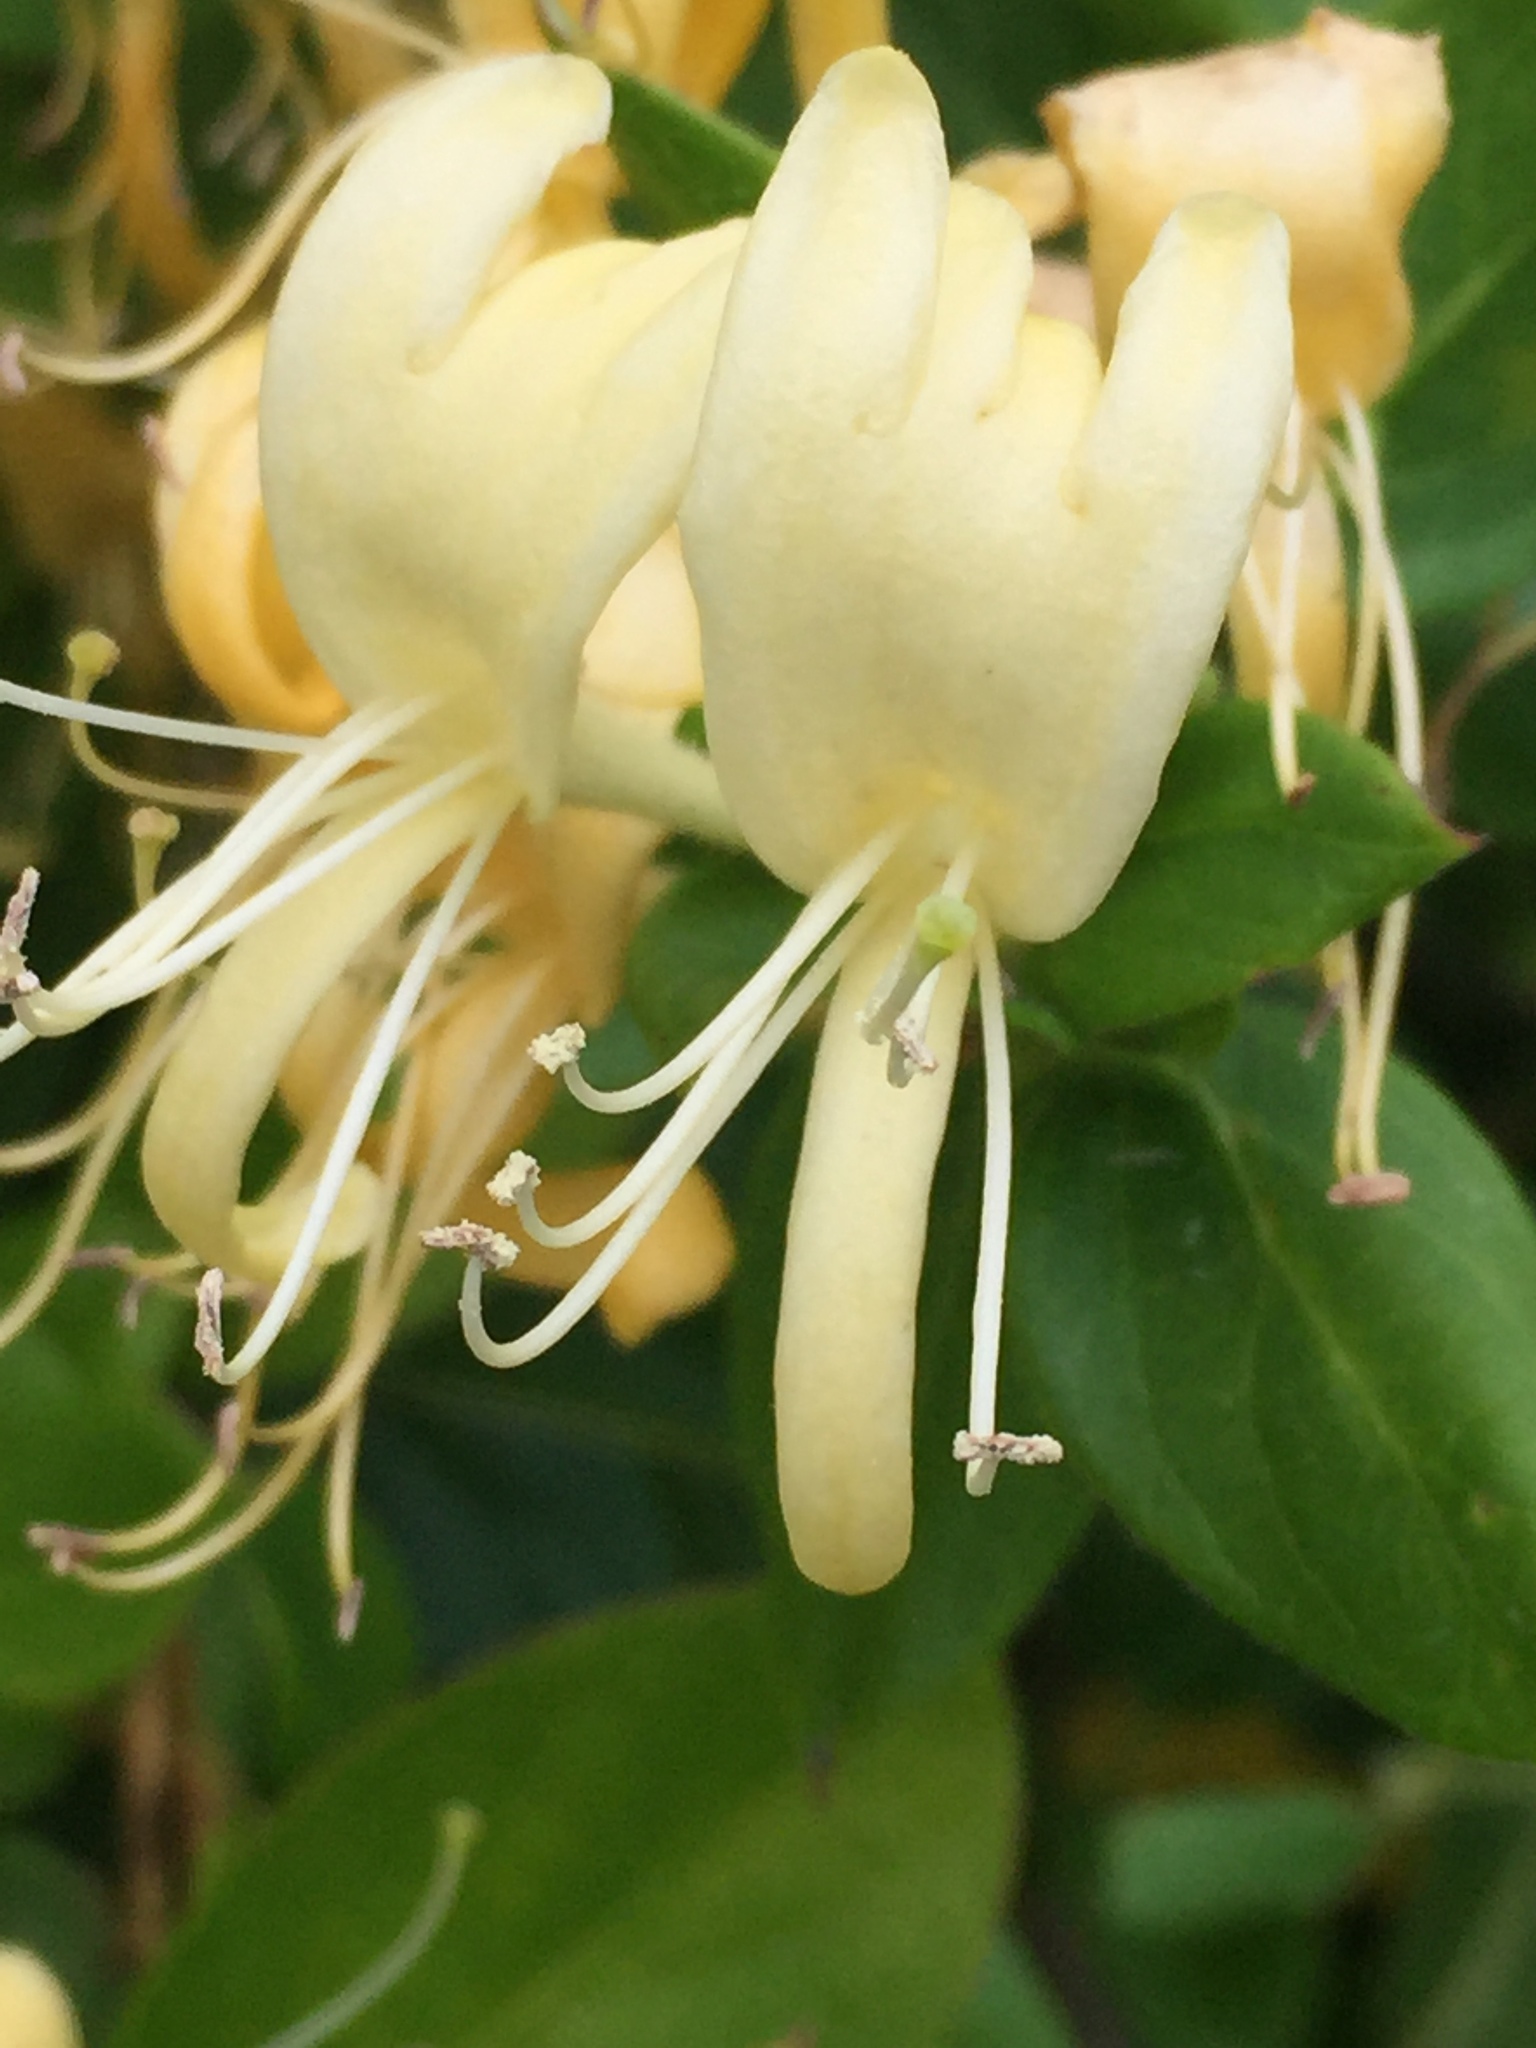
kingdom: Plantae
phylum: Tracheophyta
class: Magnoliopsida
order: Dipsacales
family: Caprifoliaceae
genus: Lonicera
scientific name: Lonicera japonica
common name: Japanese honeysuckle
